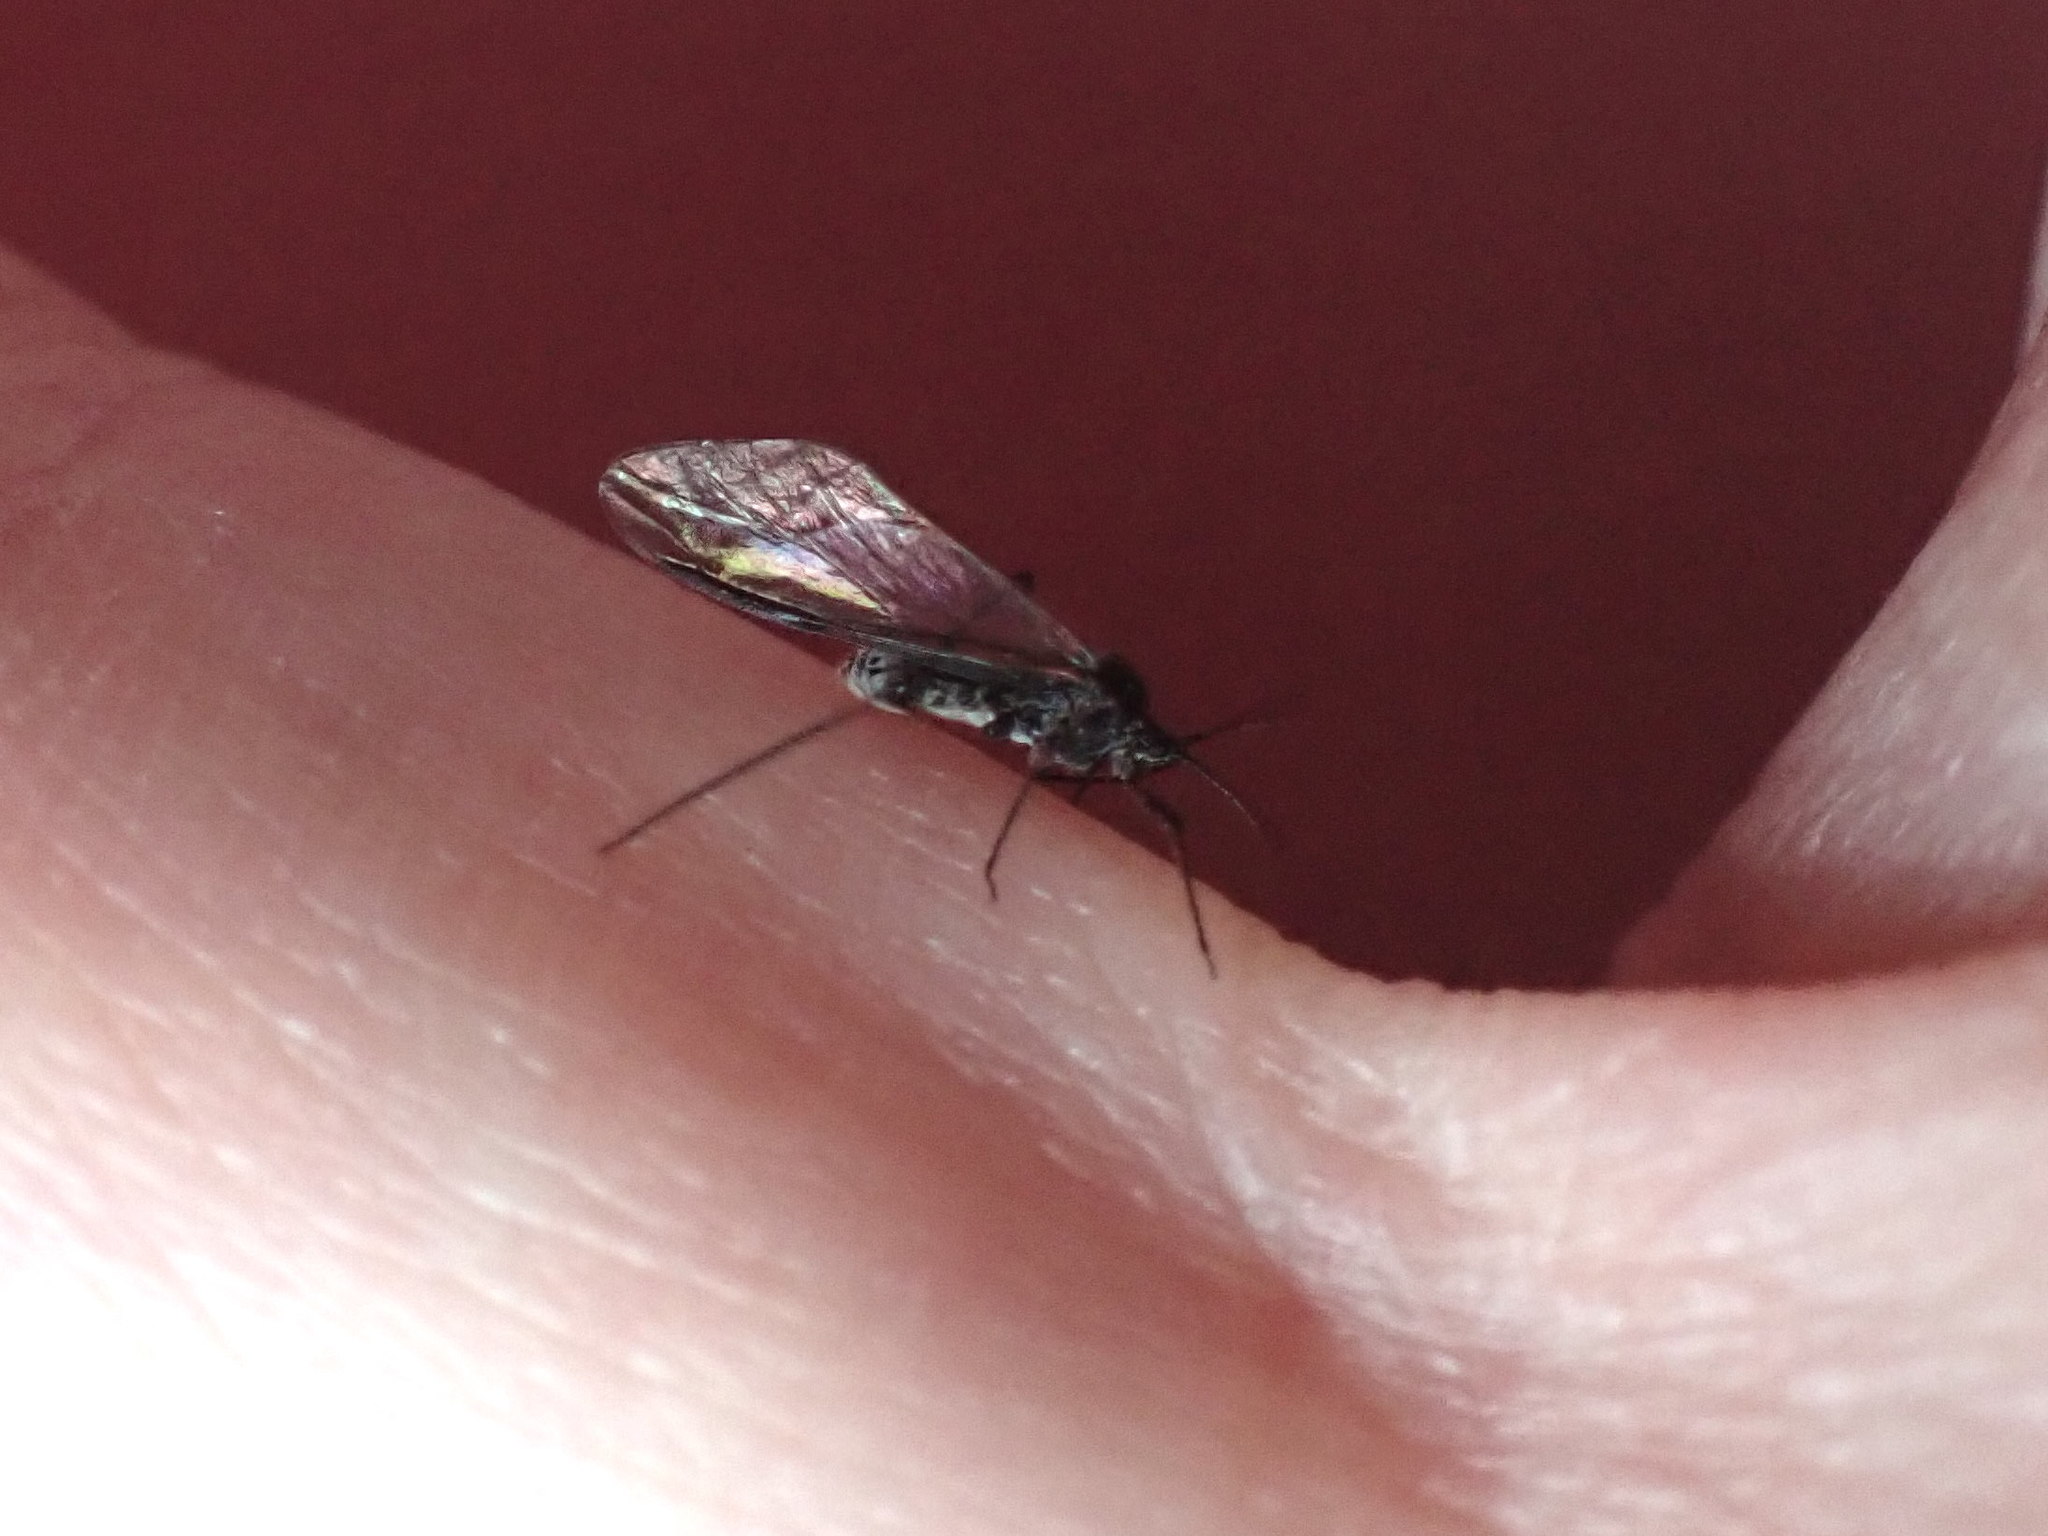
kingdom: Animalia
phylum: Arthropoda
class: Insecta
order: Hemiptera
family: Aphididae
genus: Tuberolachnus
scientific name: Tuberolachnus salignus
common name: Giant willow aphid
